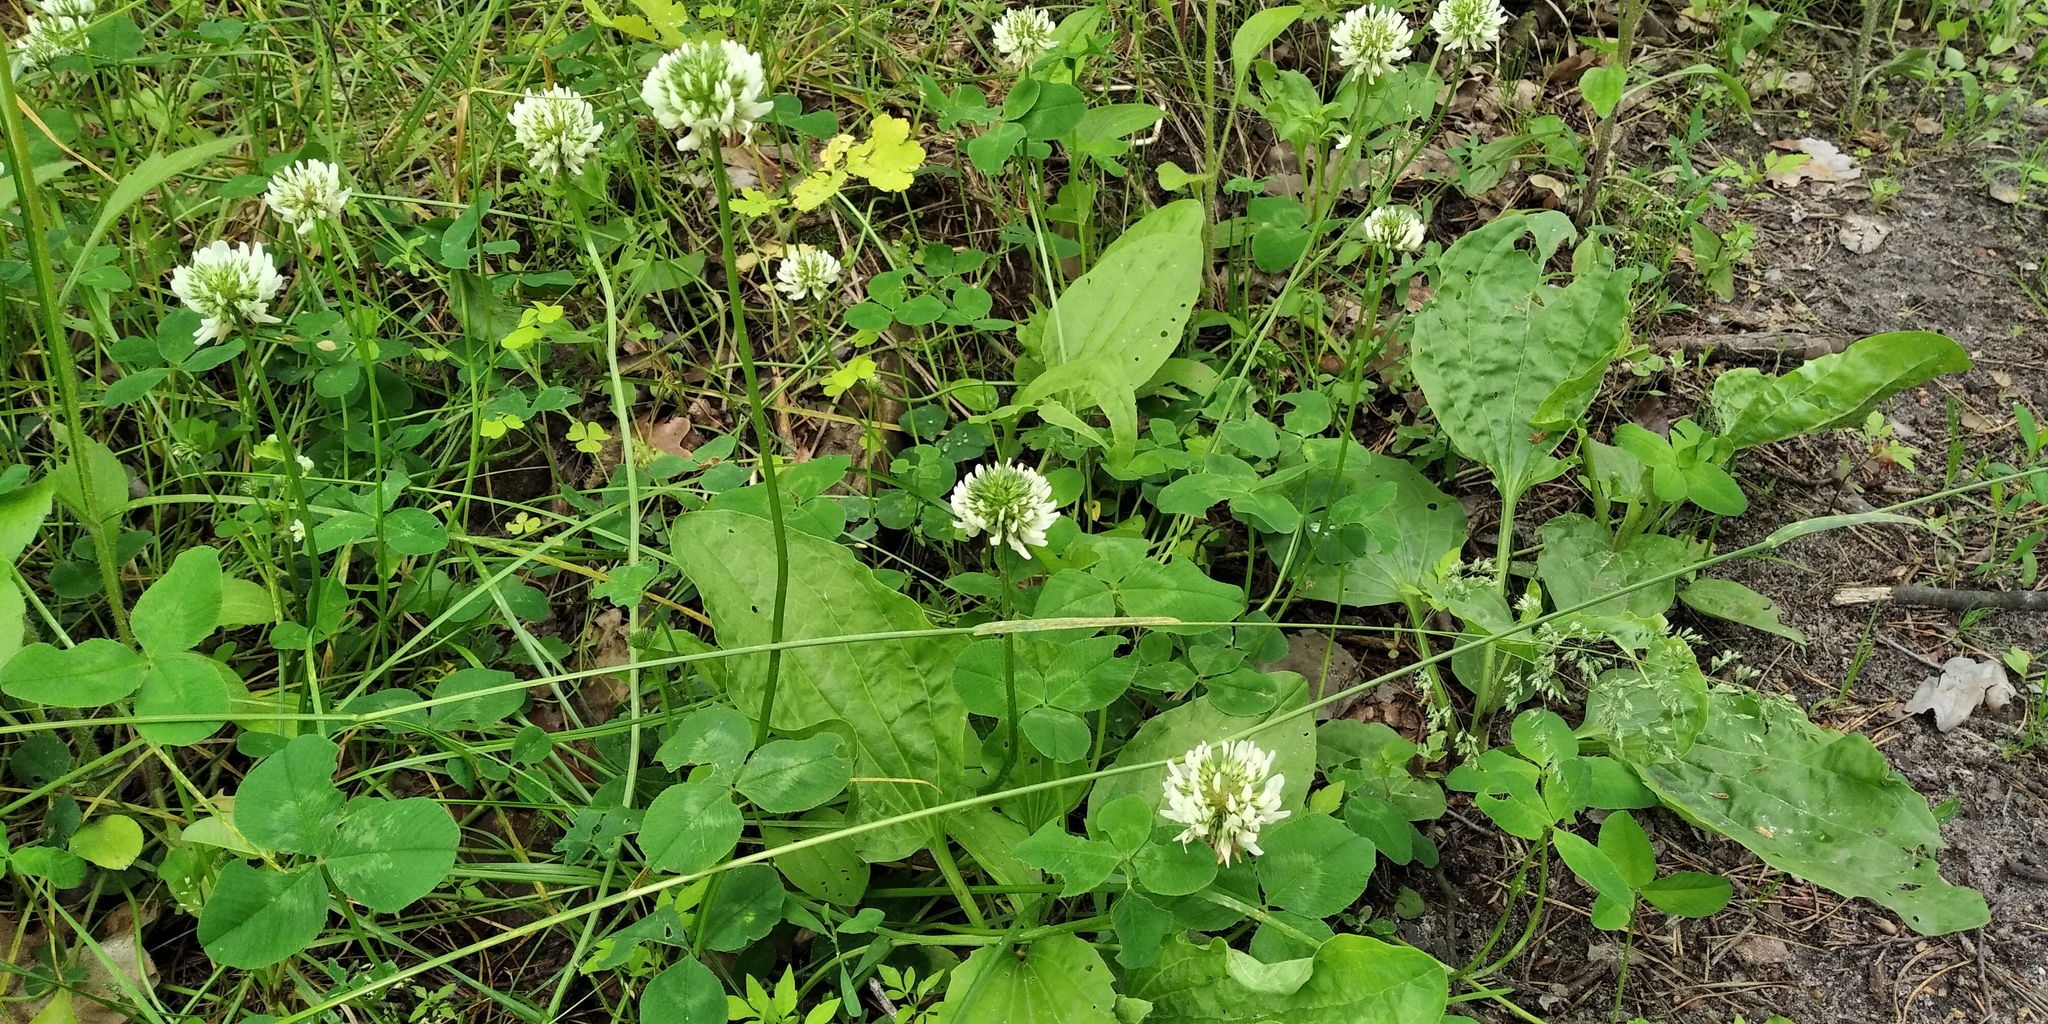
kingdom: Plantae
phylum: Tracheophyta
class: Magnoliopsida
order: Fabales
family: Fabaceae
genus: Trifolium
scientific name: Trifolium repens
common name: White clover
